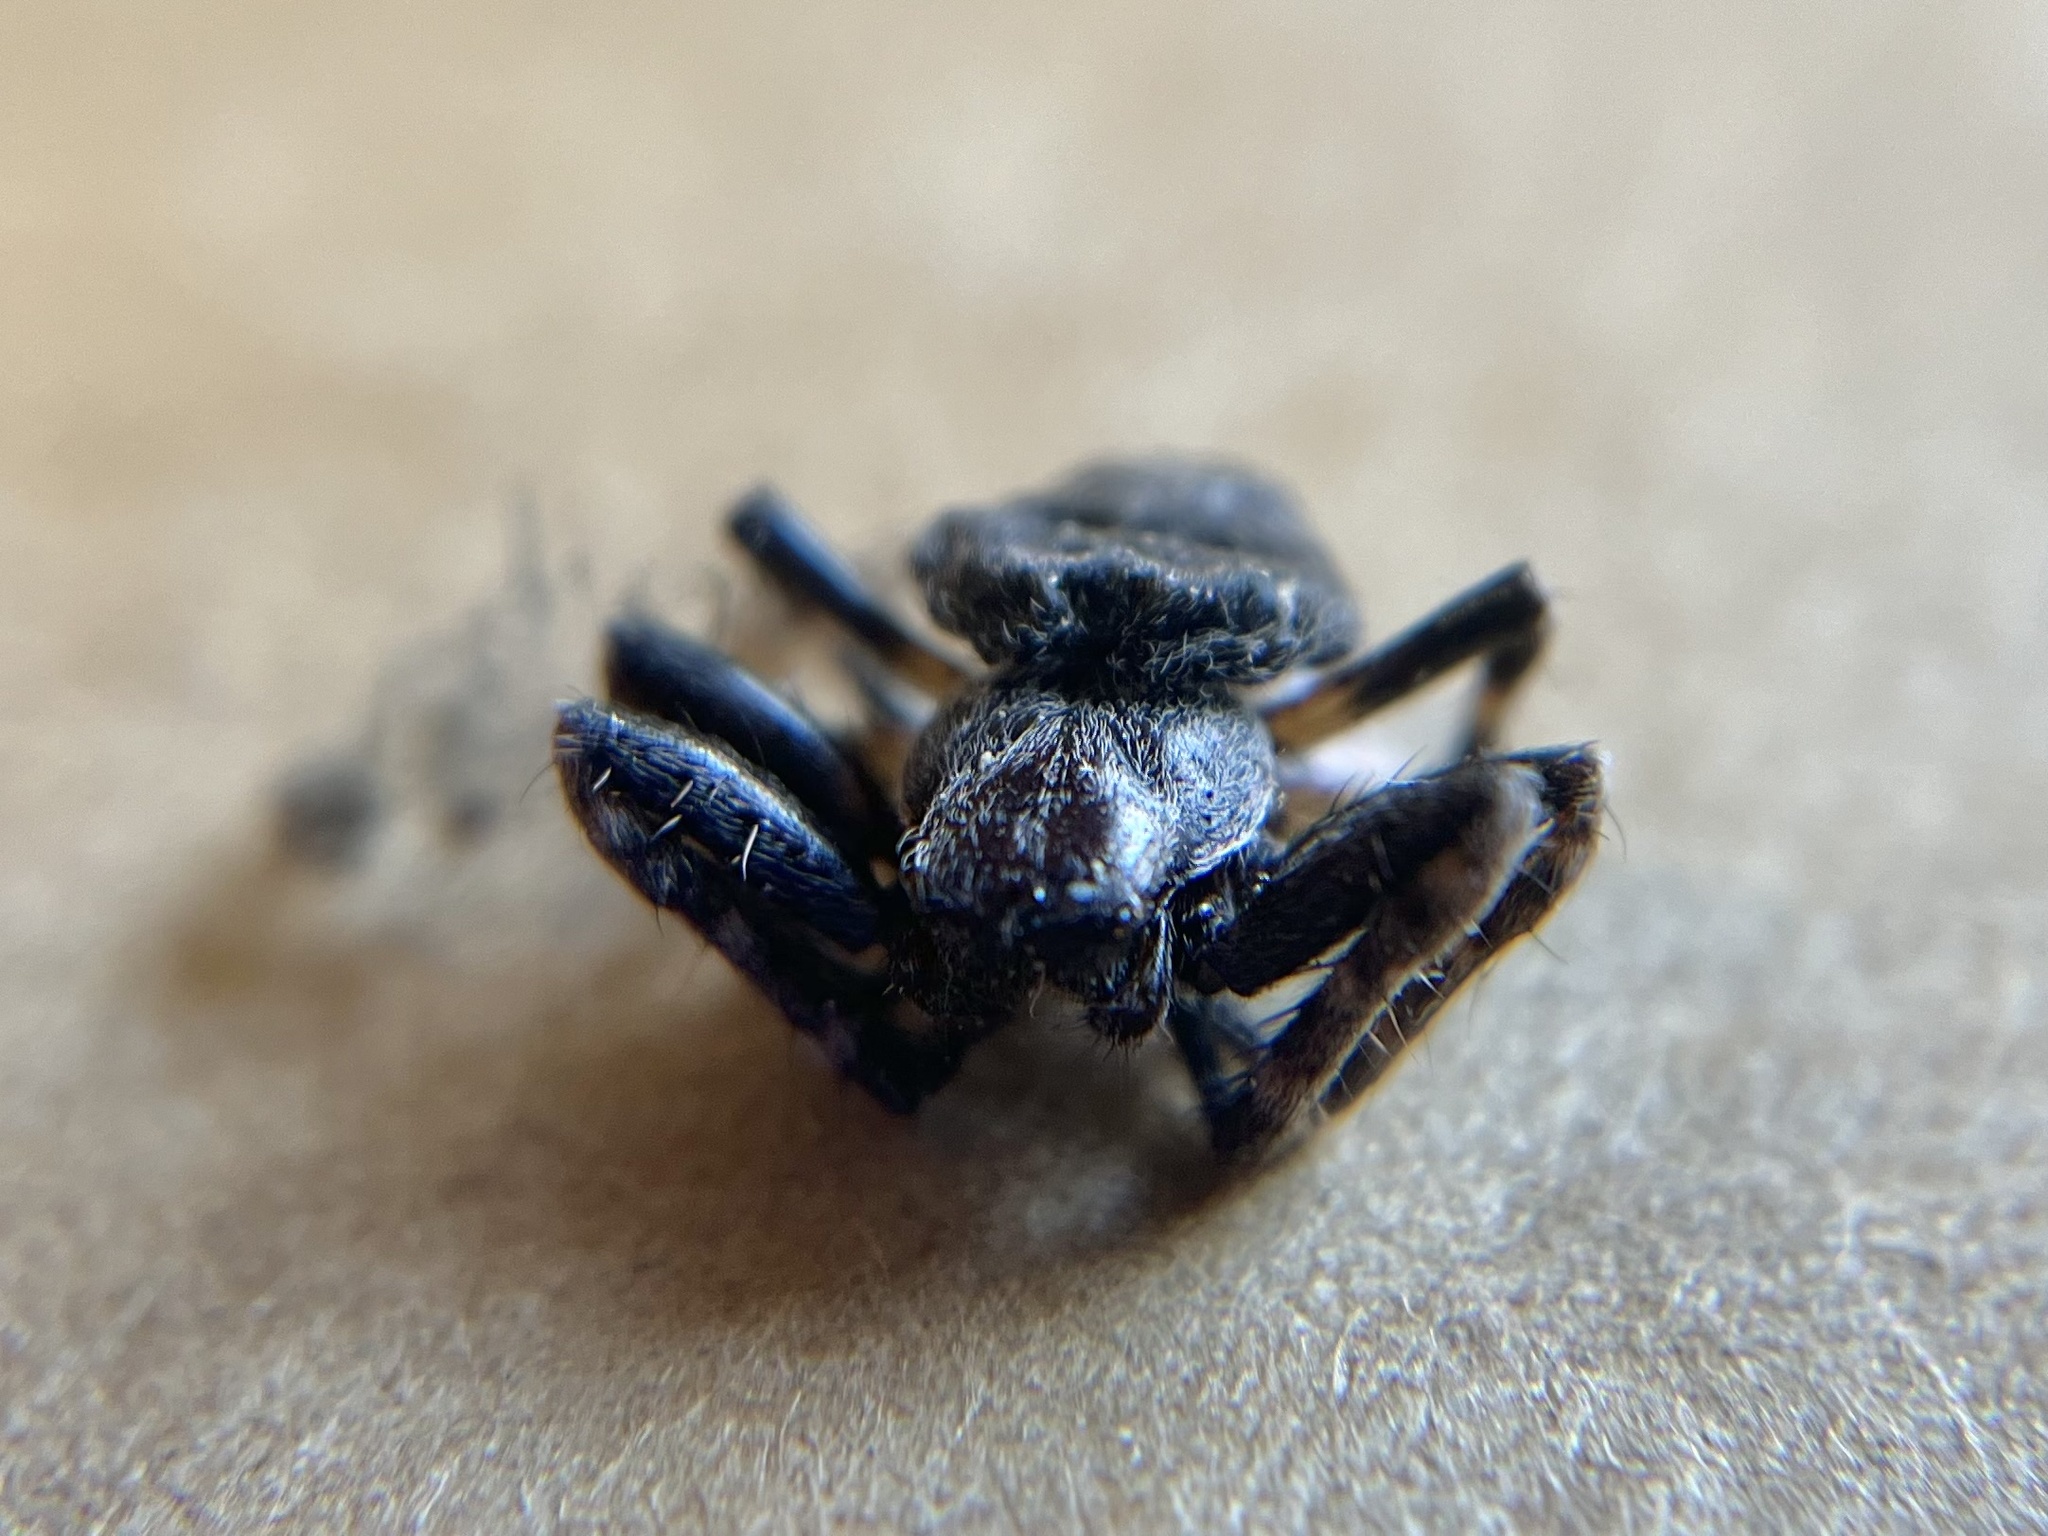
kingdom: Animalia
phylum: Arthropoda
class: Arachnida
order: Araneae
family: Araneidae
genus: Nuctenea
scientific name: Nuctenea umbratica
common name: Toad spider
